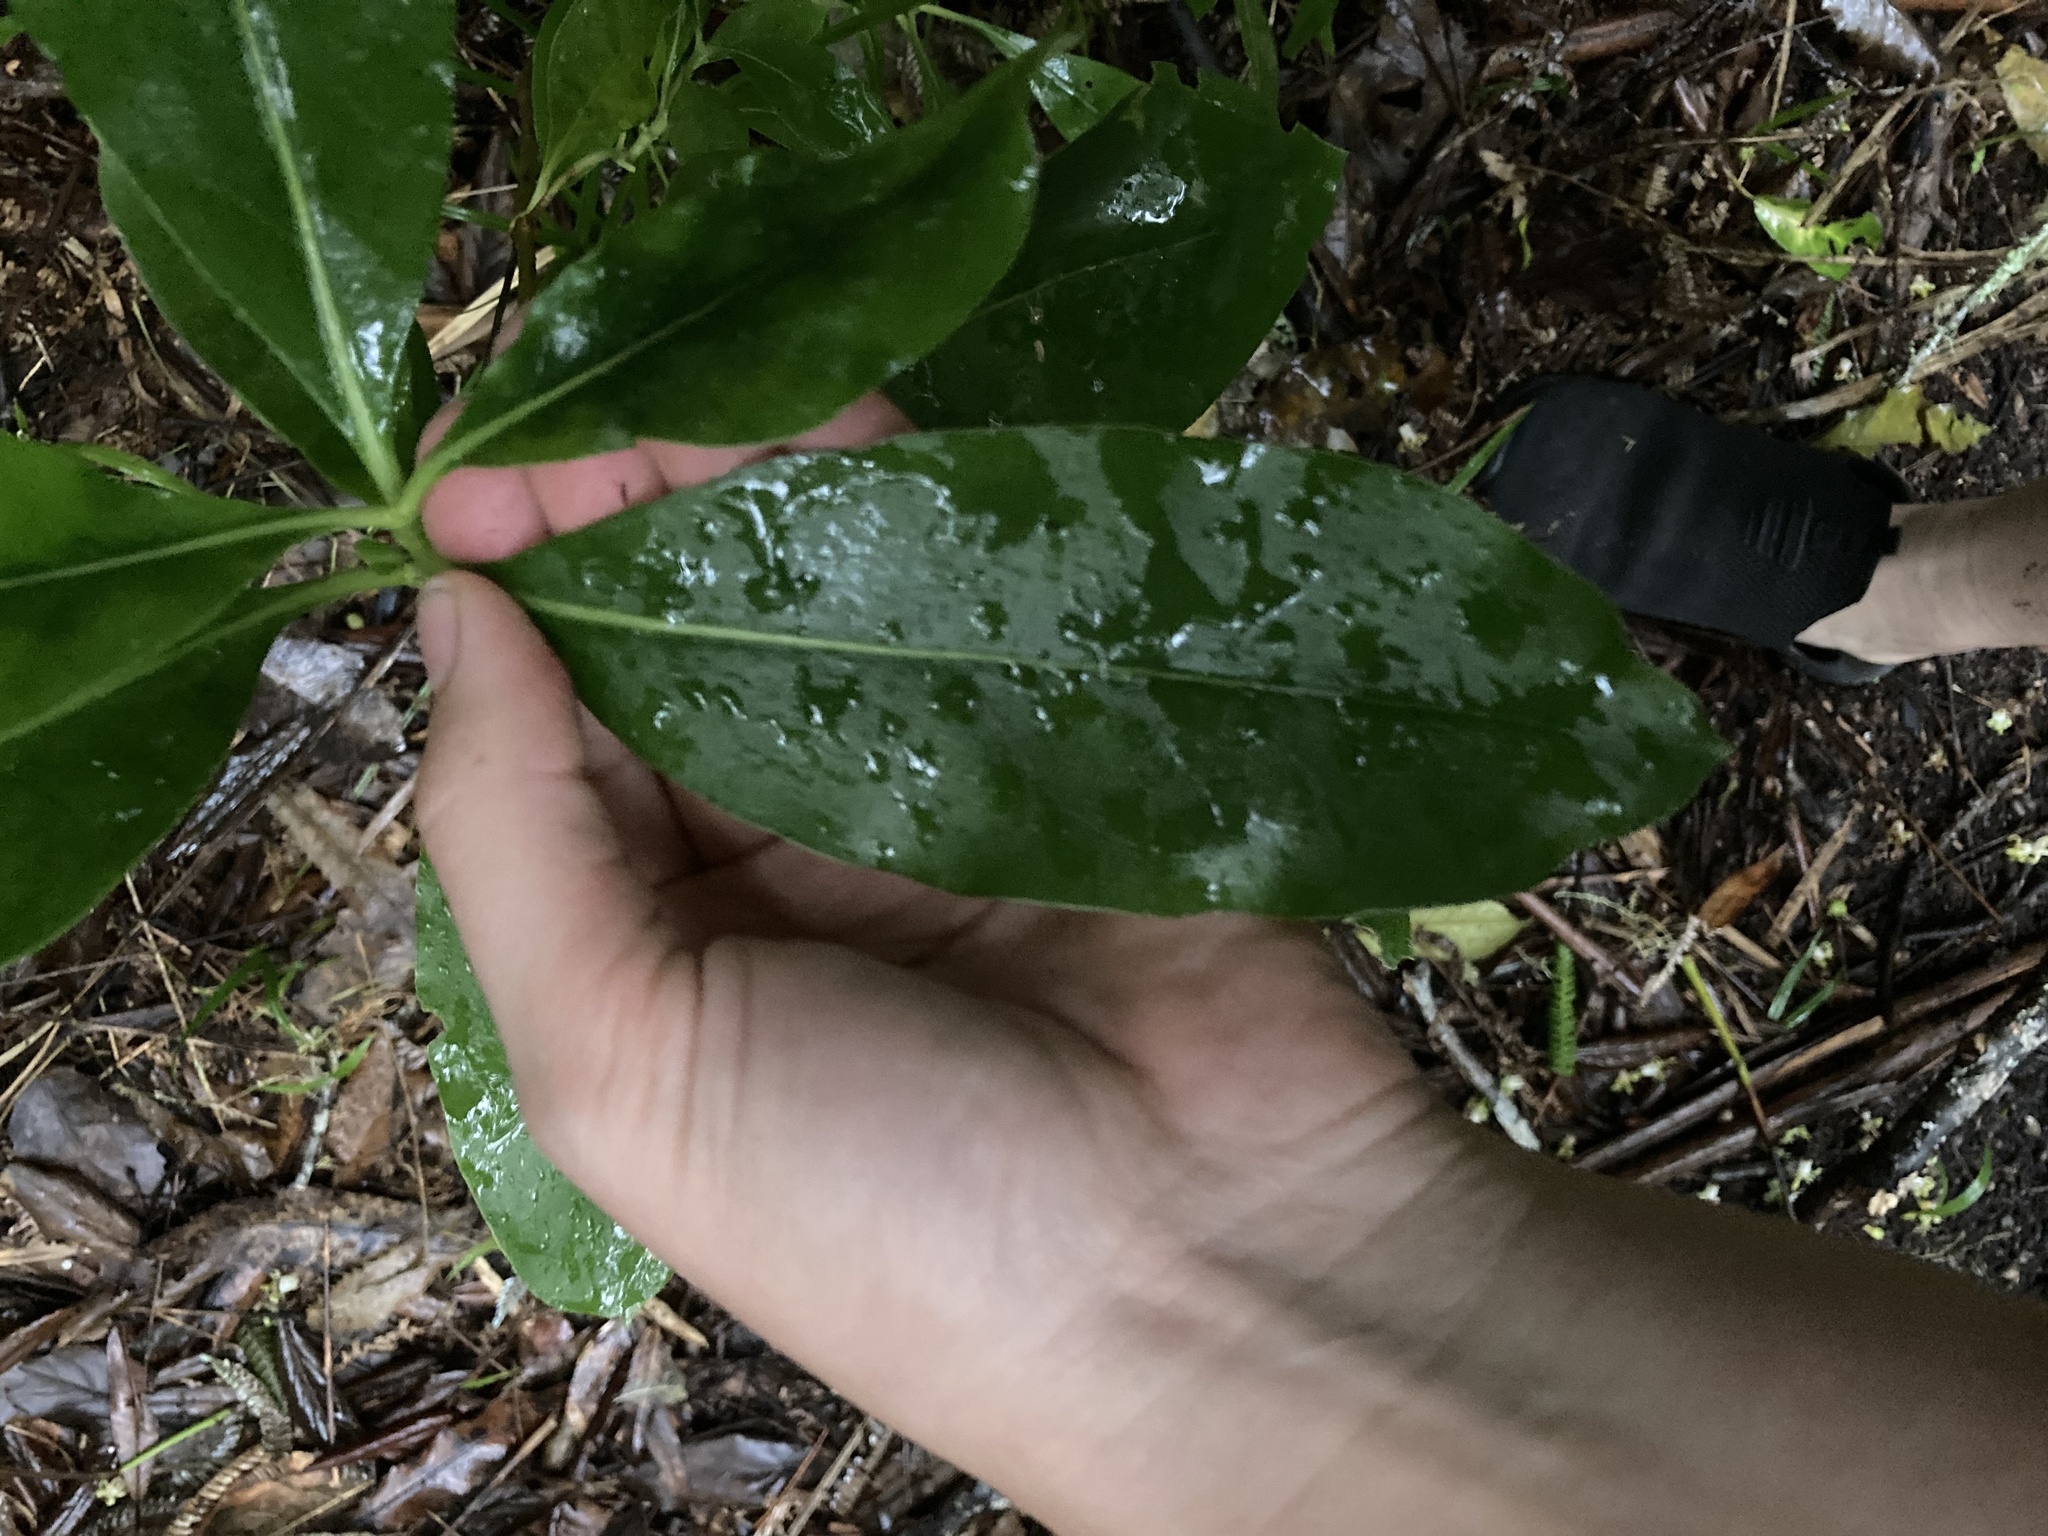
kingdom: Plantae
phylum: Tracheophyta
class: Magnoliopsida
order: Gentianales
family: Rubiaceae
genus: Coprosma
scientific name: Coprosma lucida
